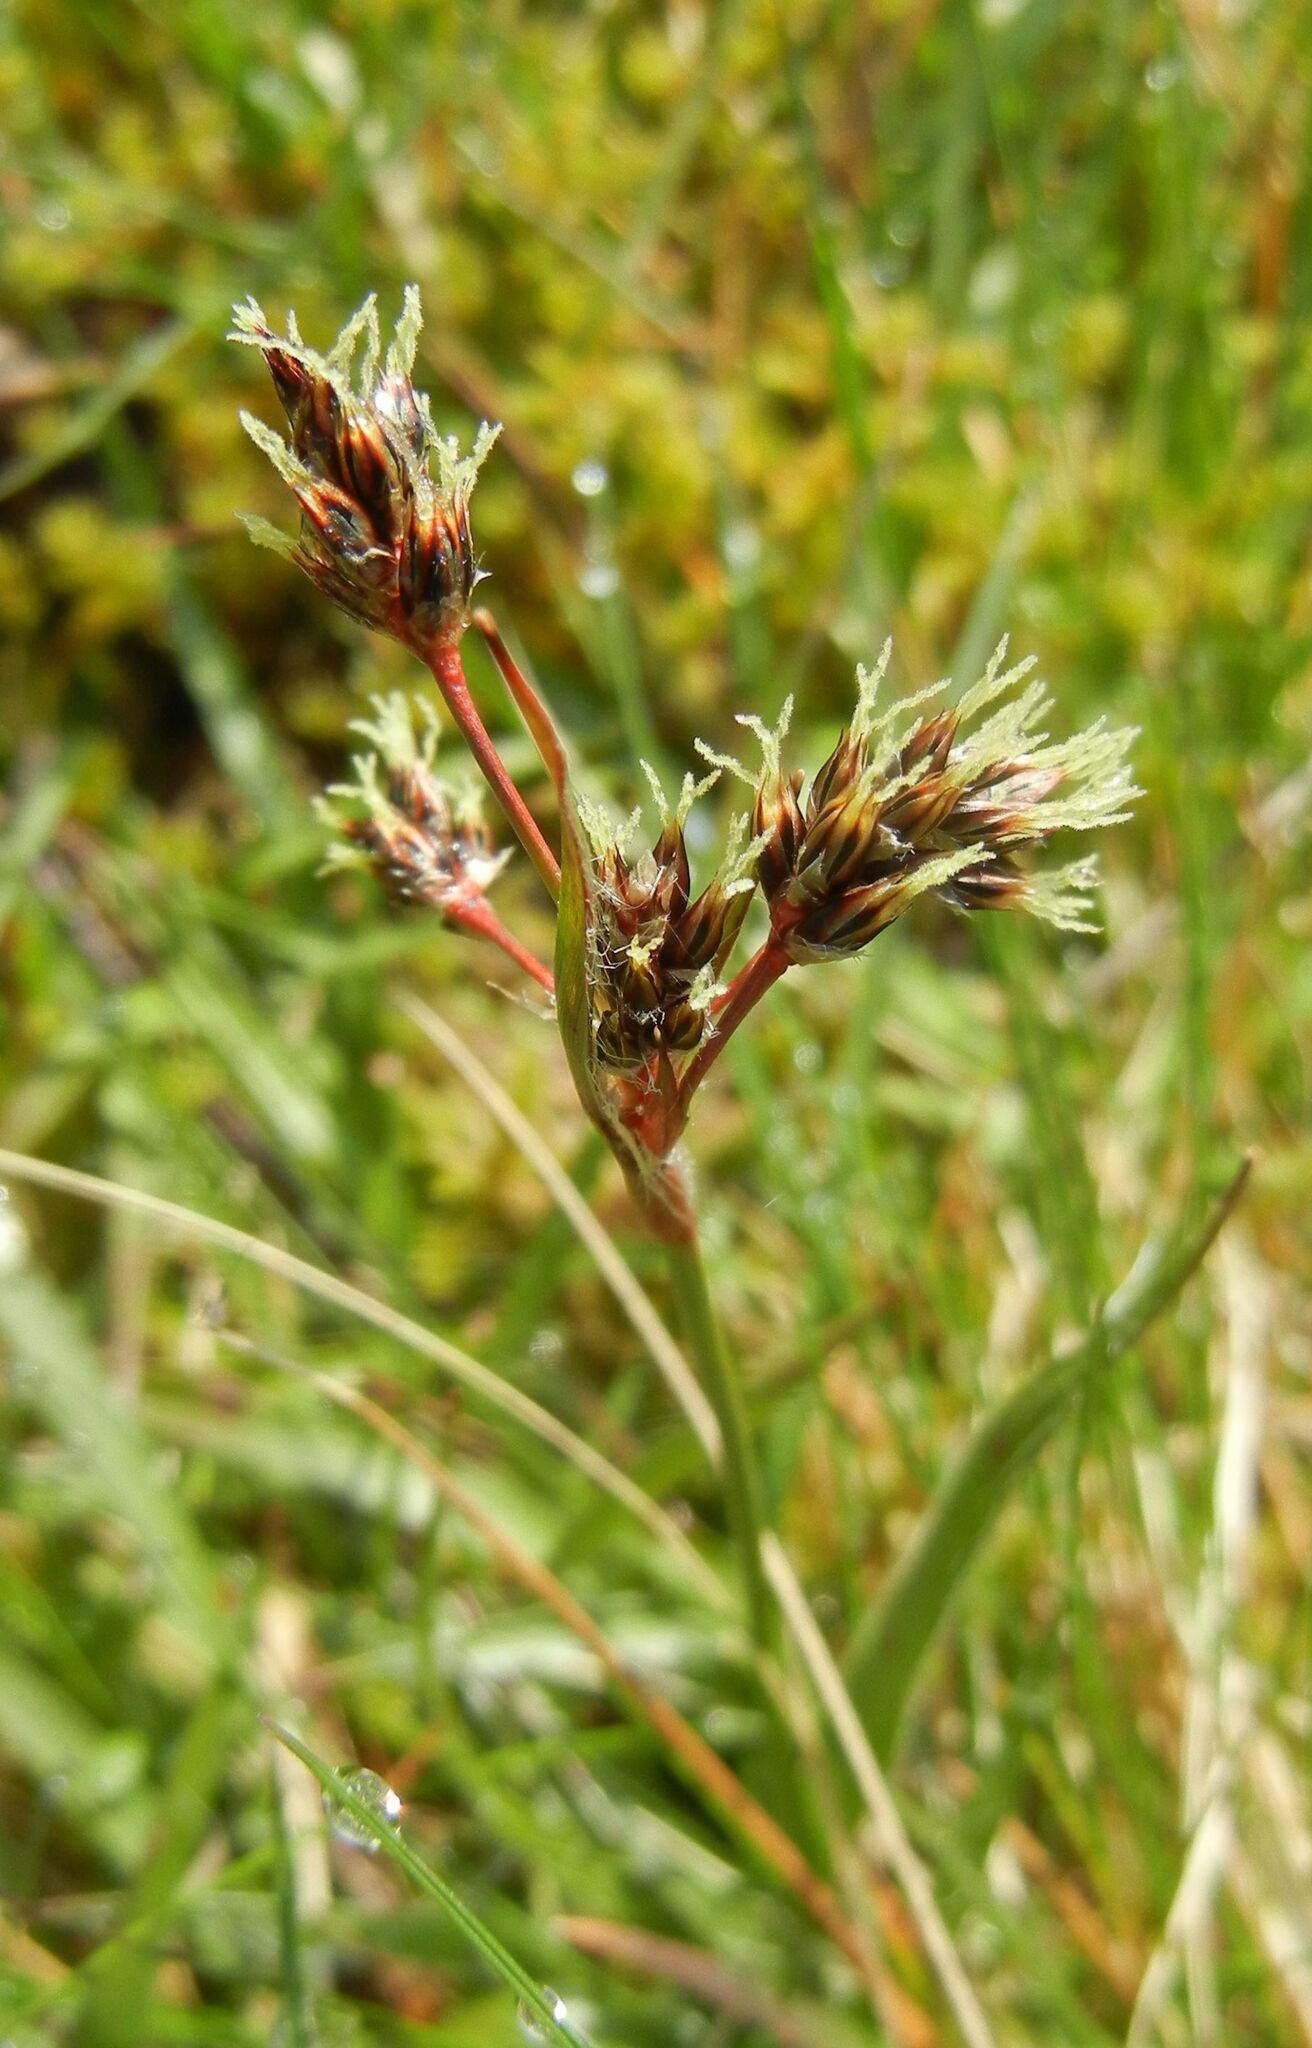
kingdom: Plantae
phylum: Tracheophyta
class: Liliopsida
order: Poales
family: Juncaceae
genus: Luzula
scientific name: Luzula campestris
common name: Field wood-rush
